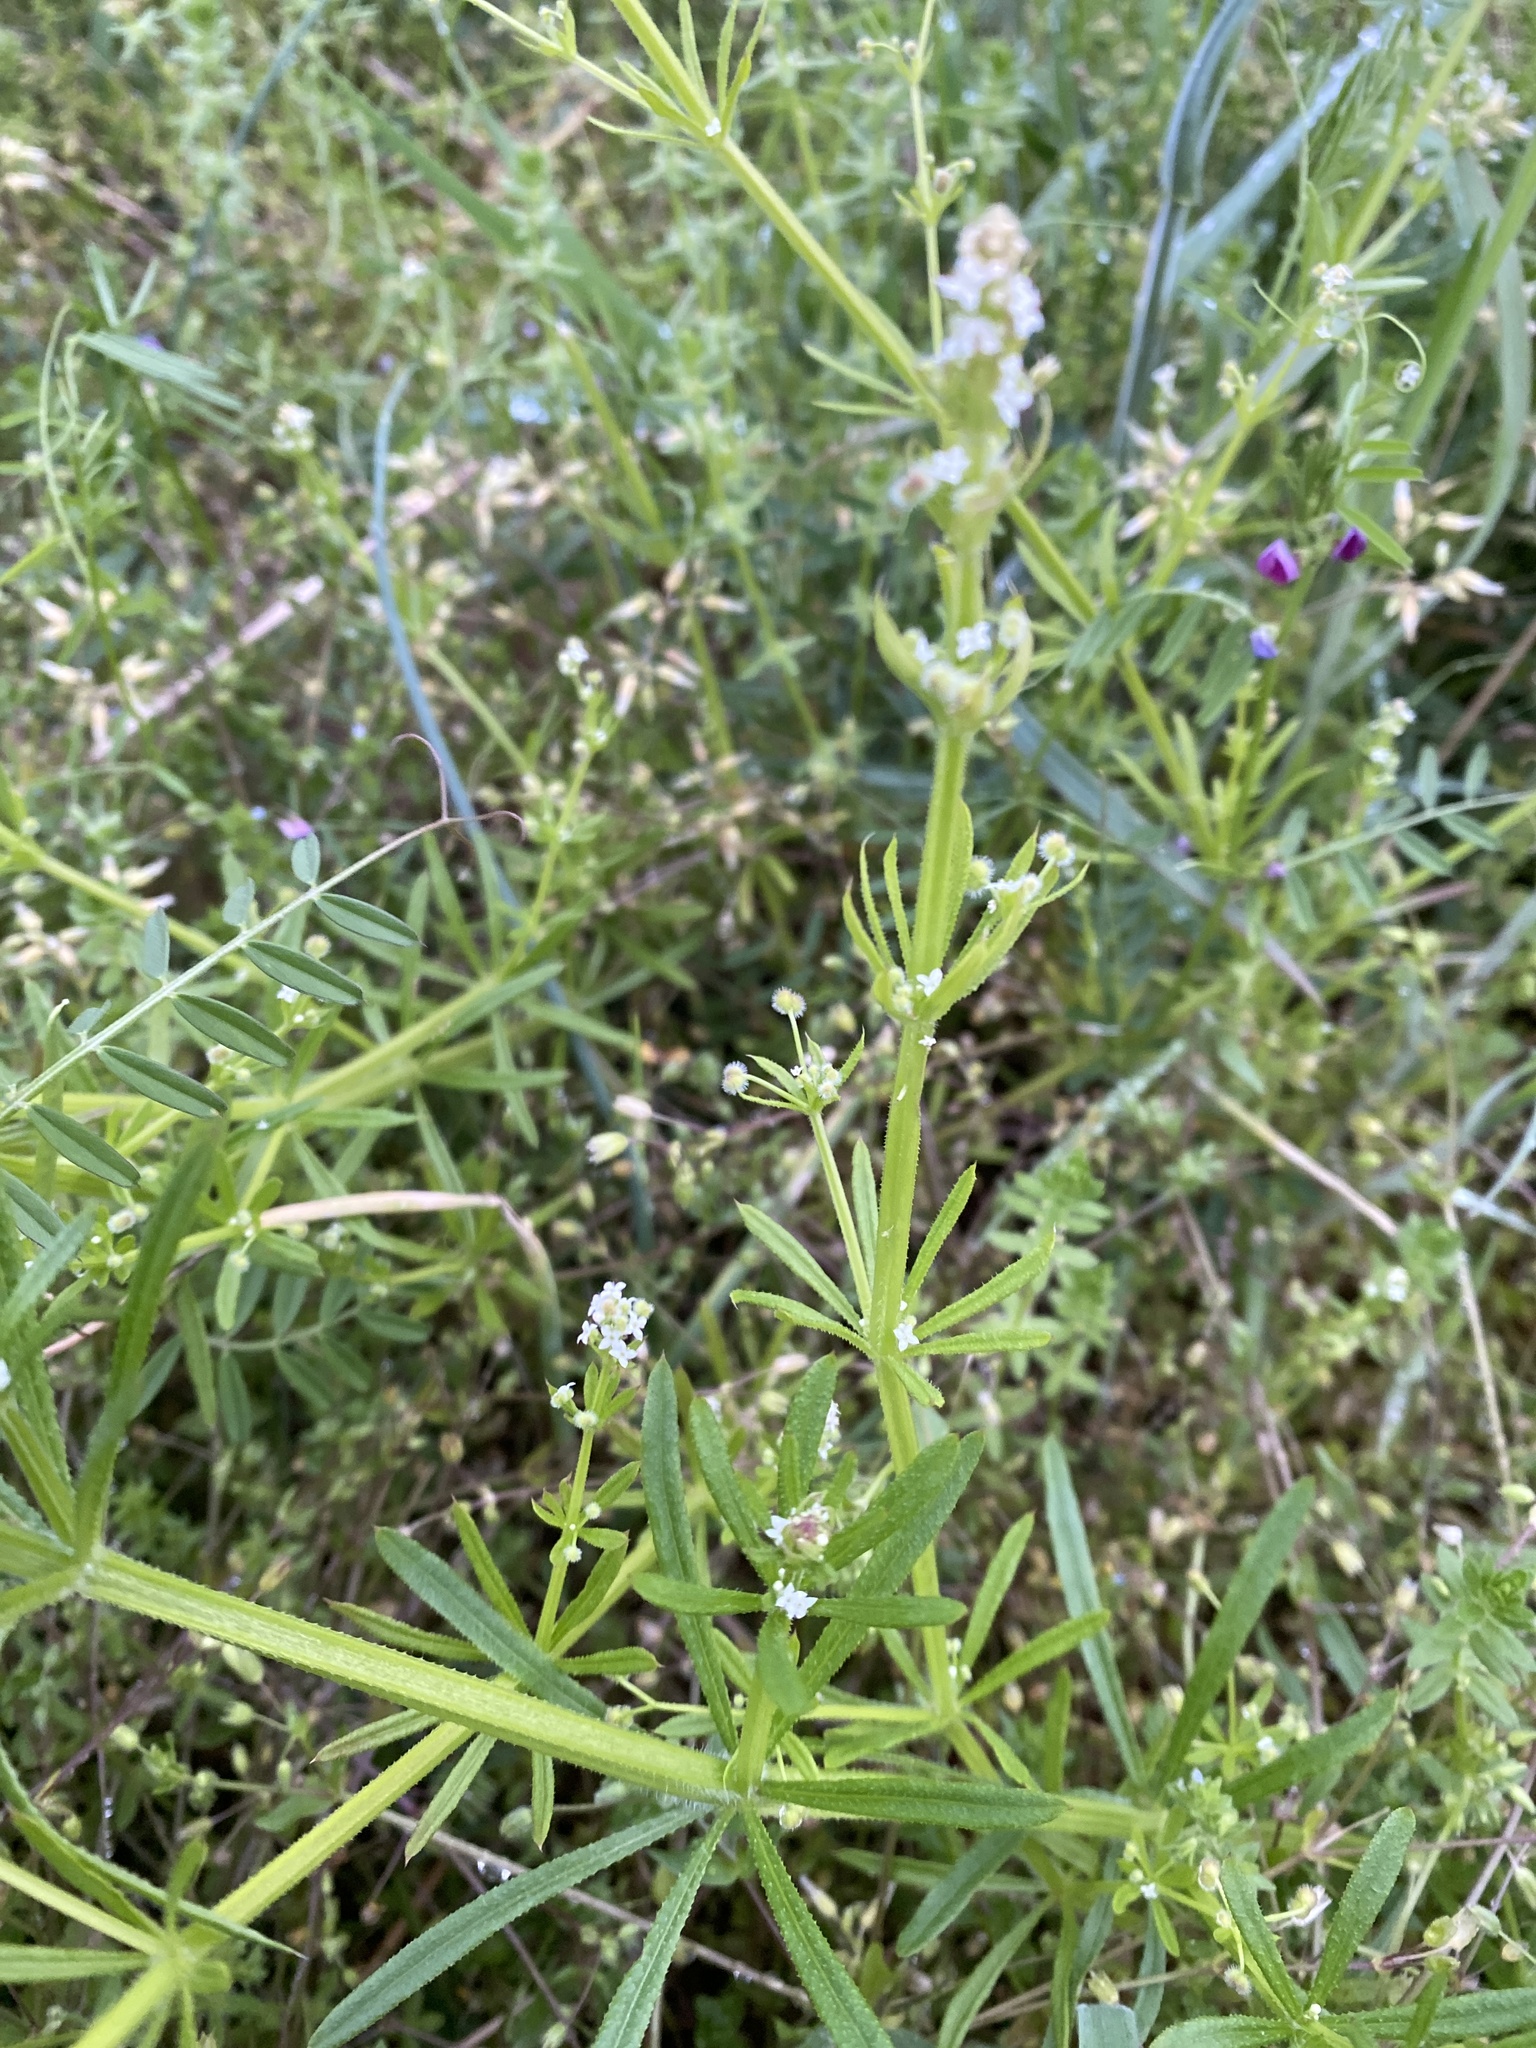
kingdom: Plantae
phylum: Tracheophyta
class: Magnoliopsida
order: Gentianales
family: Rubiaceae
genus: Galium
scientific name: Galium aparine
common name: Cleavers
